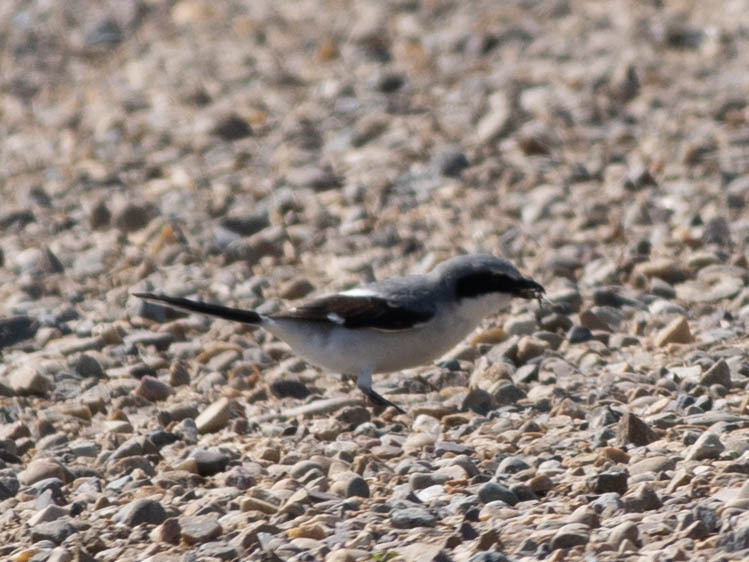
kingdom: Animalia
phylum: Chordata
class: Aves
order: Passeriformes
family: Laniidae
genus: Lanius
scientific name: Lanius ludovicianus
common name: Loggerhead shrike
